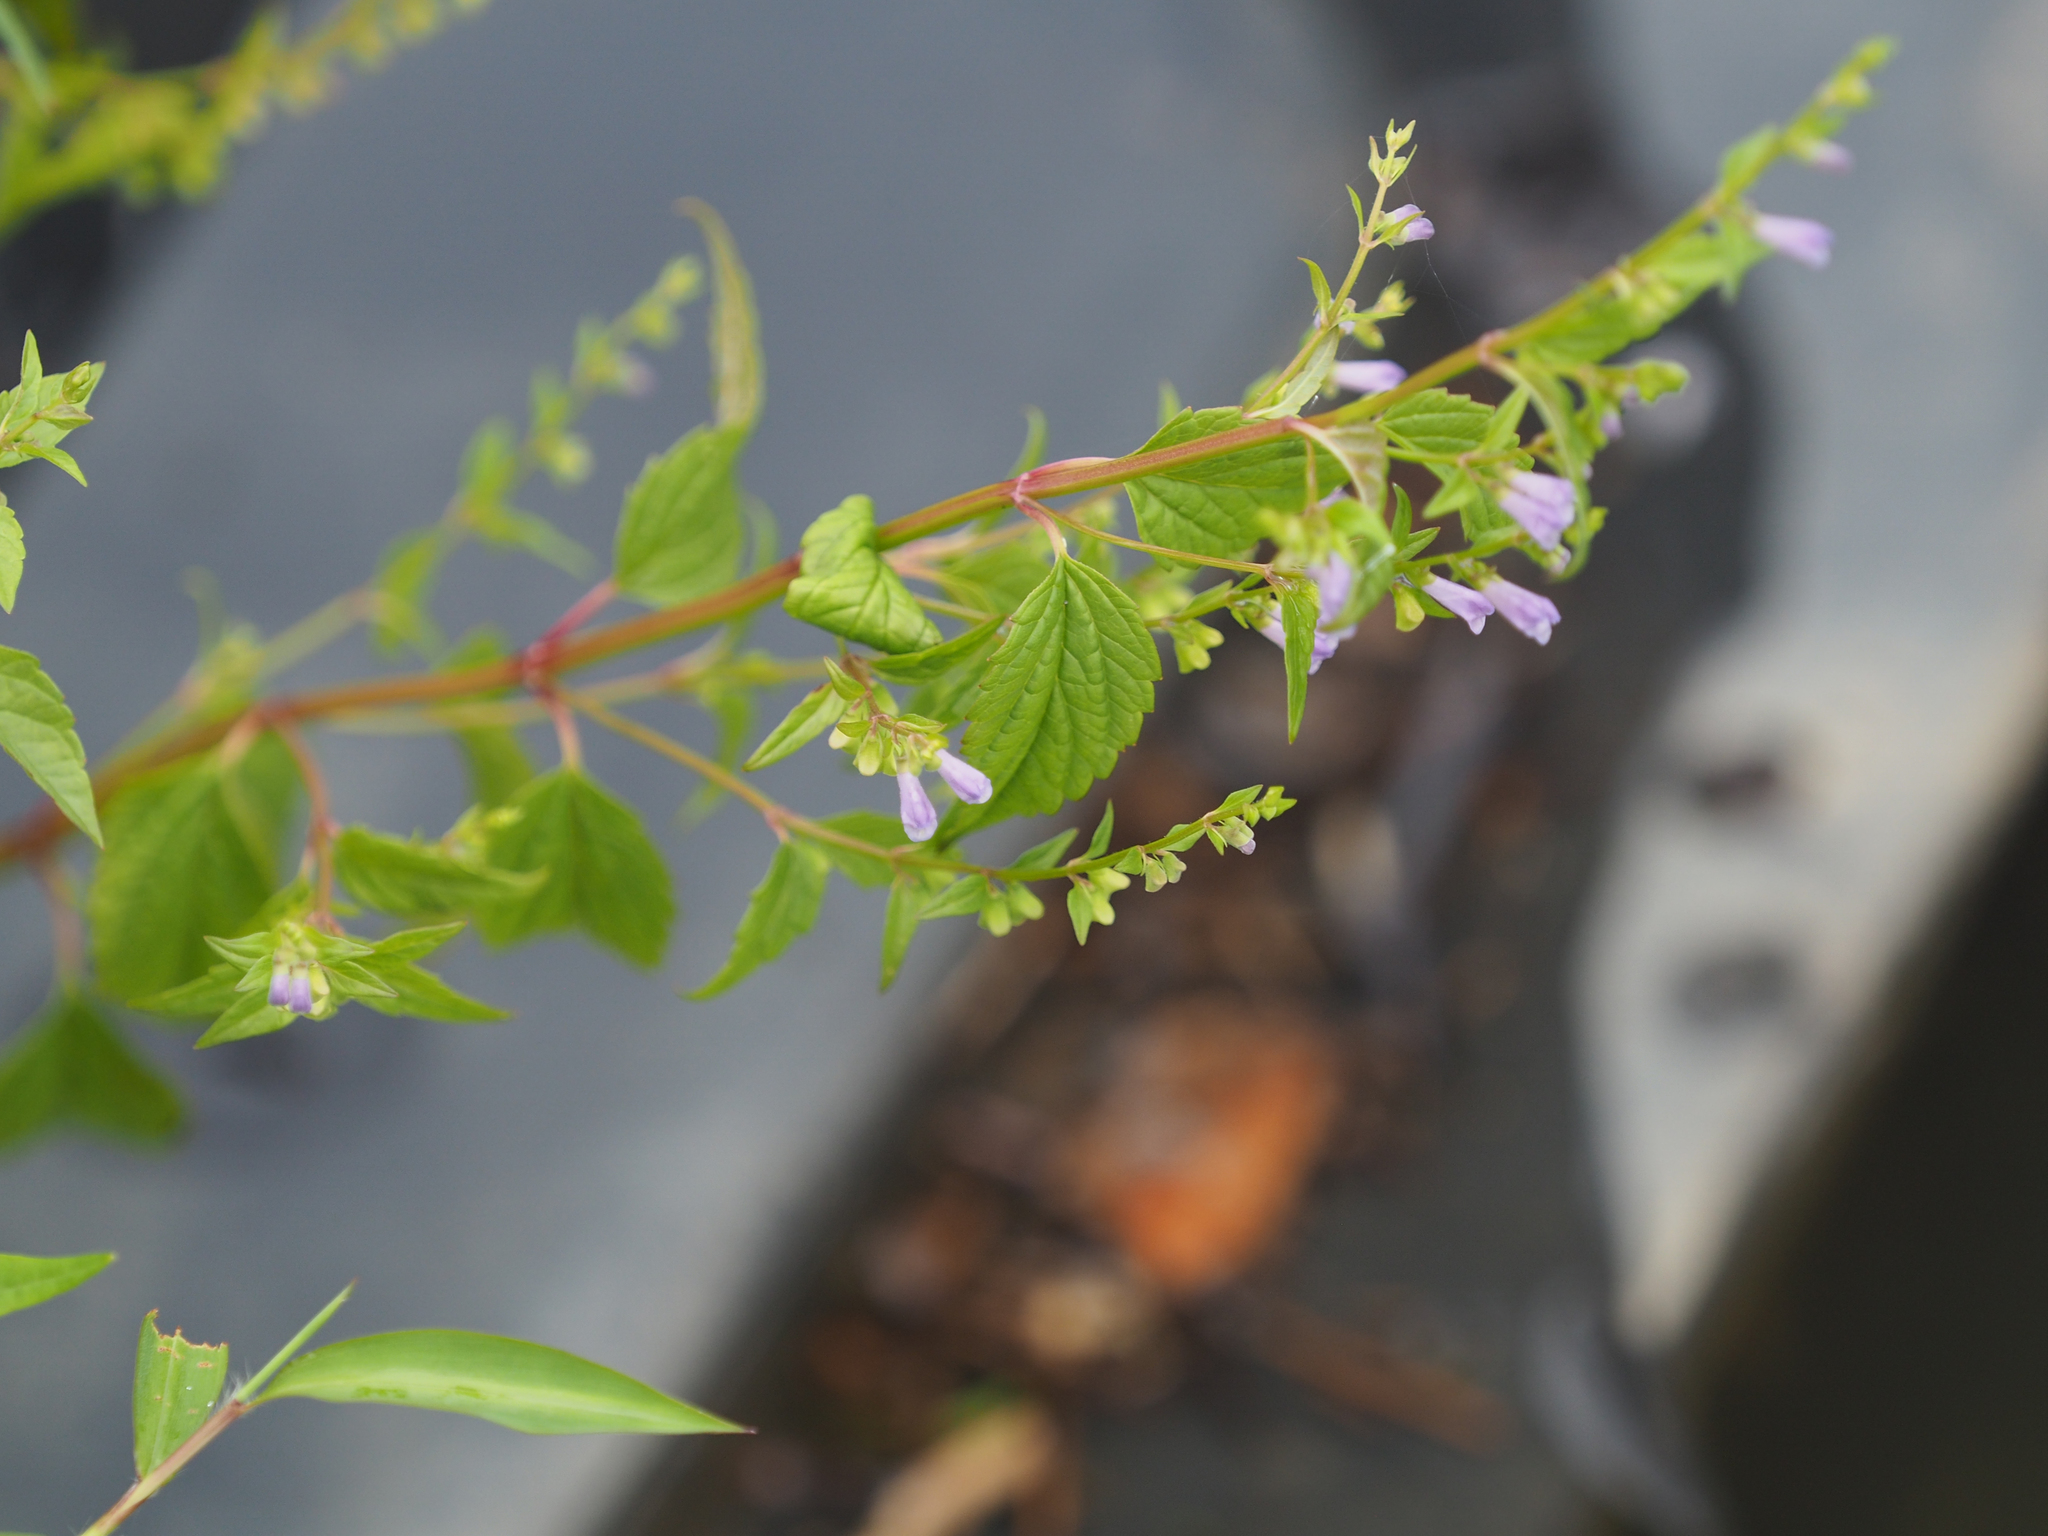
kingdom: Plantae
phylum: Tracheophyta
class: Magnoliopsida
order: Lamiales
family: Lamiaceae
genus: Scutellaria
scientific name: Scutellaria lateriflora
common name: Blue skullcap
